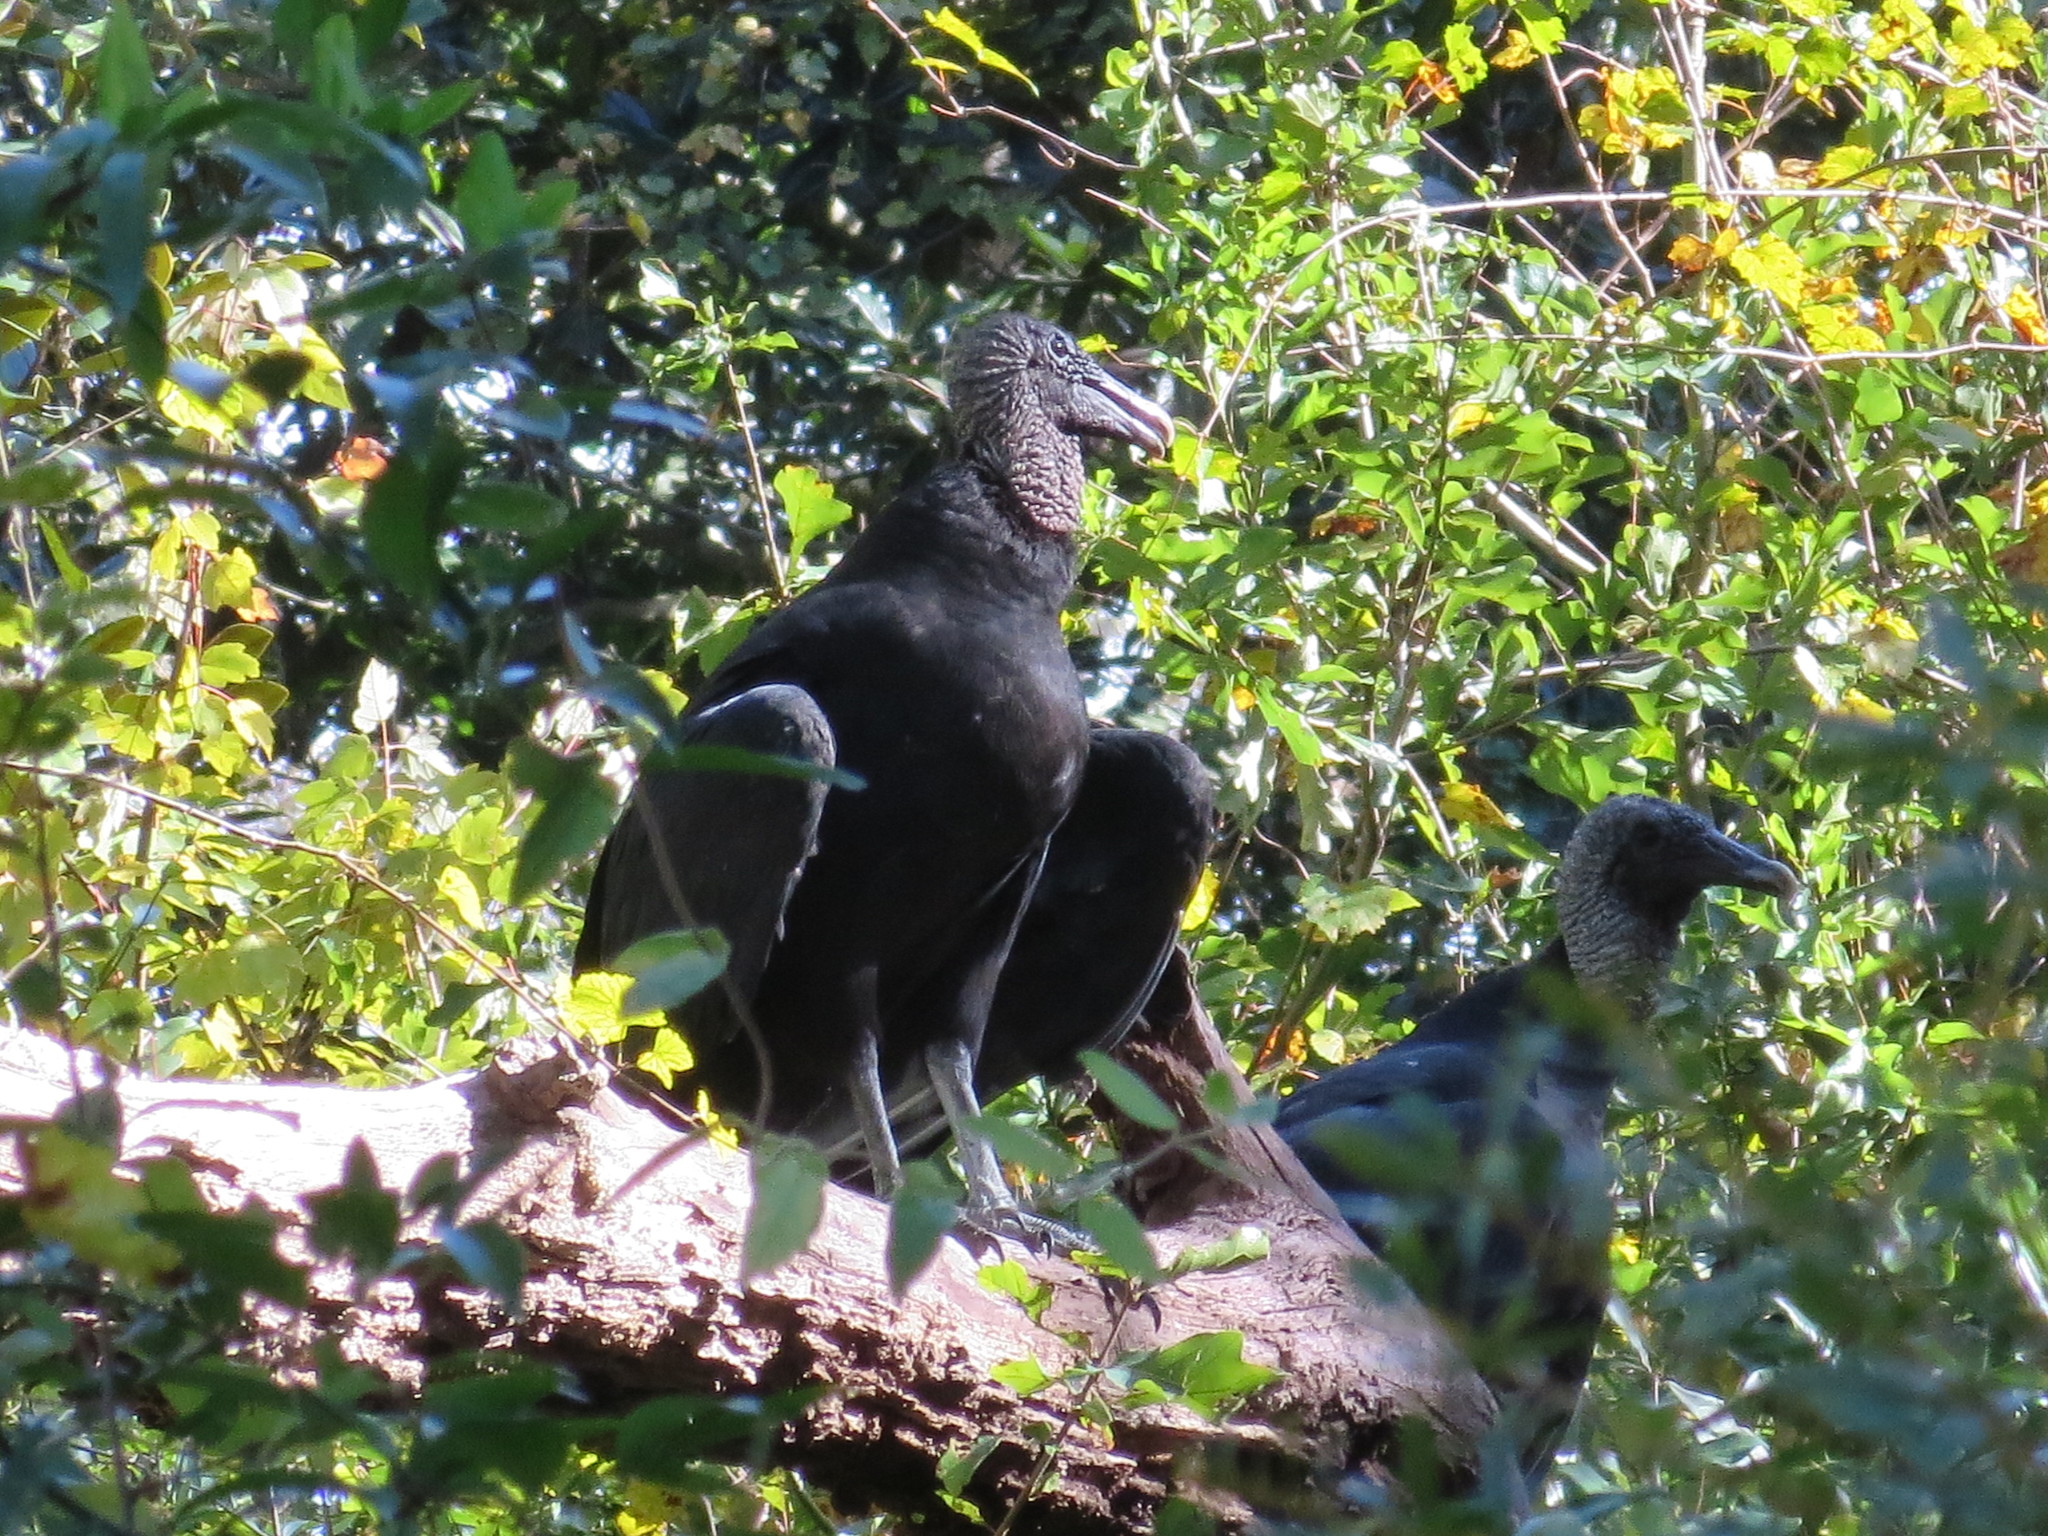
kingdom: Animalia
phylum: Chordata
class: Aves
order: Accipitriformes
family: Cathartidae
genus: Coragyps
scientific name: Coragyps atratus
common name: Black vulture
